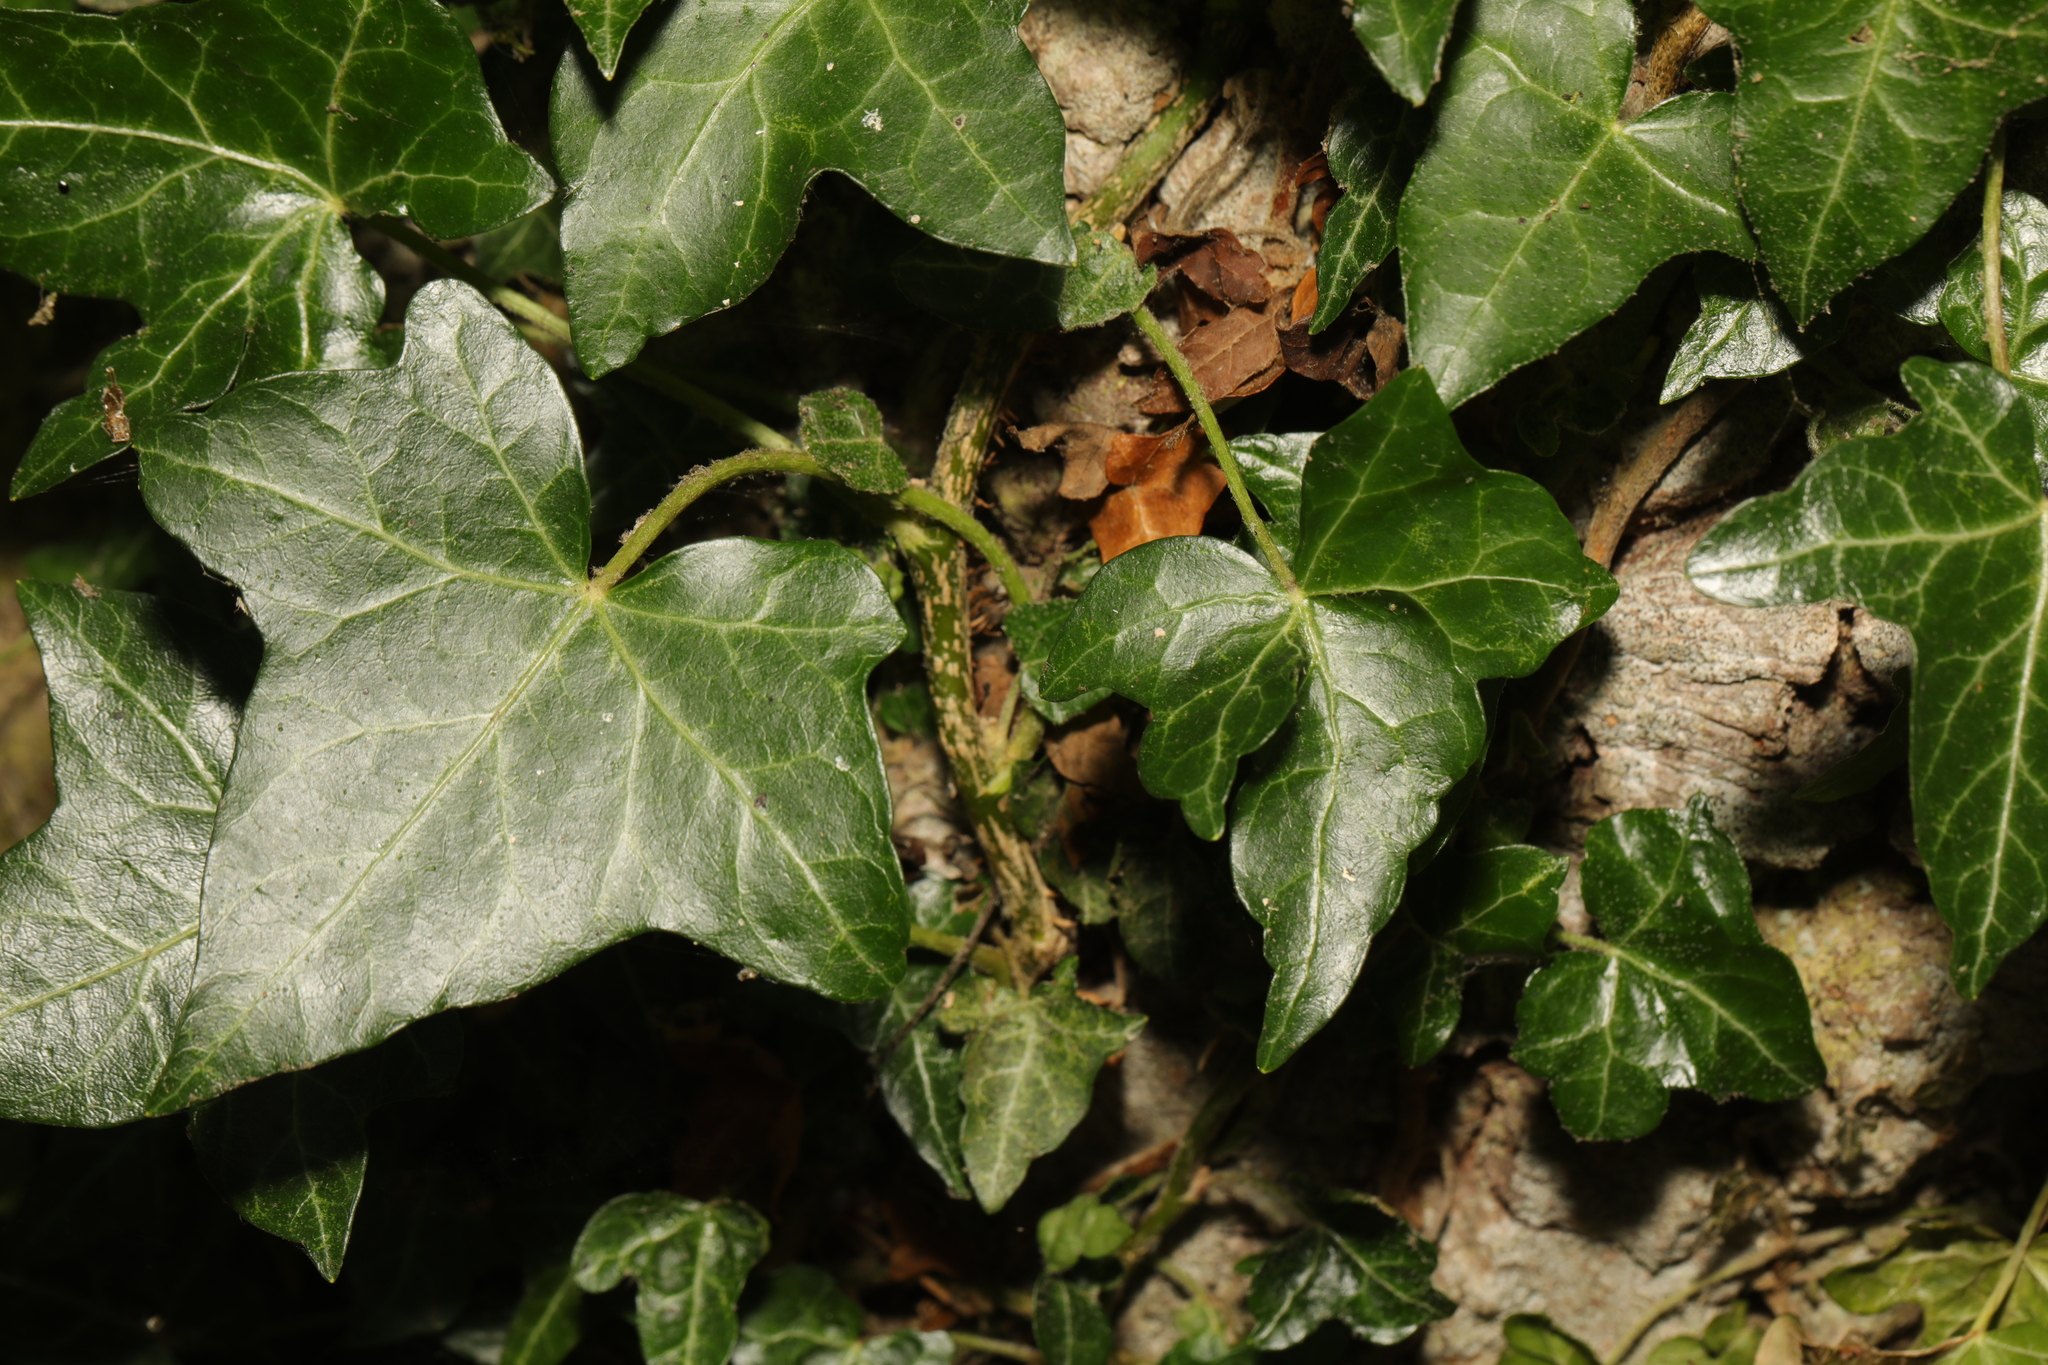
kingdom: Plantae
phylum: Tracheophyta
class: Magnoliopsida
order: Apiales
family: Araliaceae
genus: Hedera
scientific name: Hedera helix
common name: Ivy
